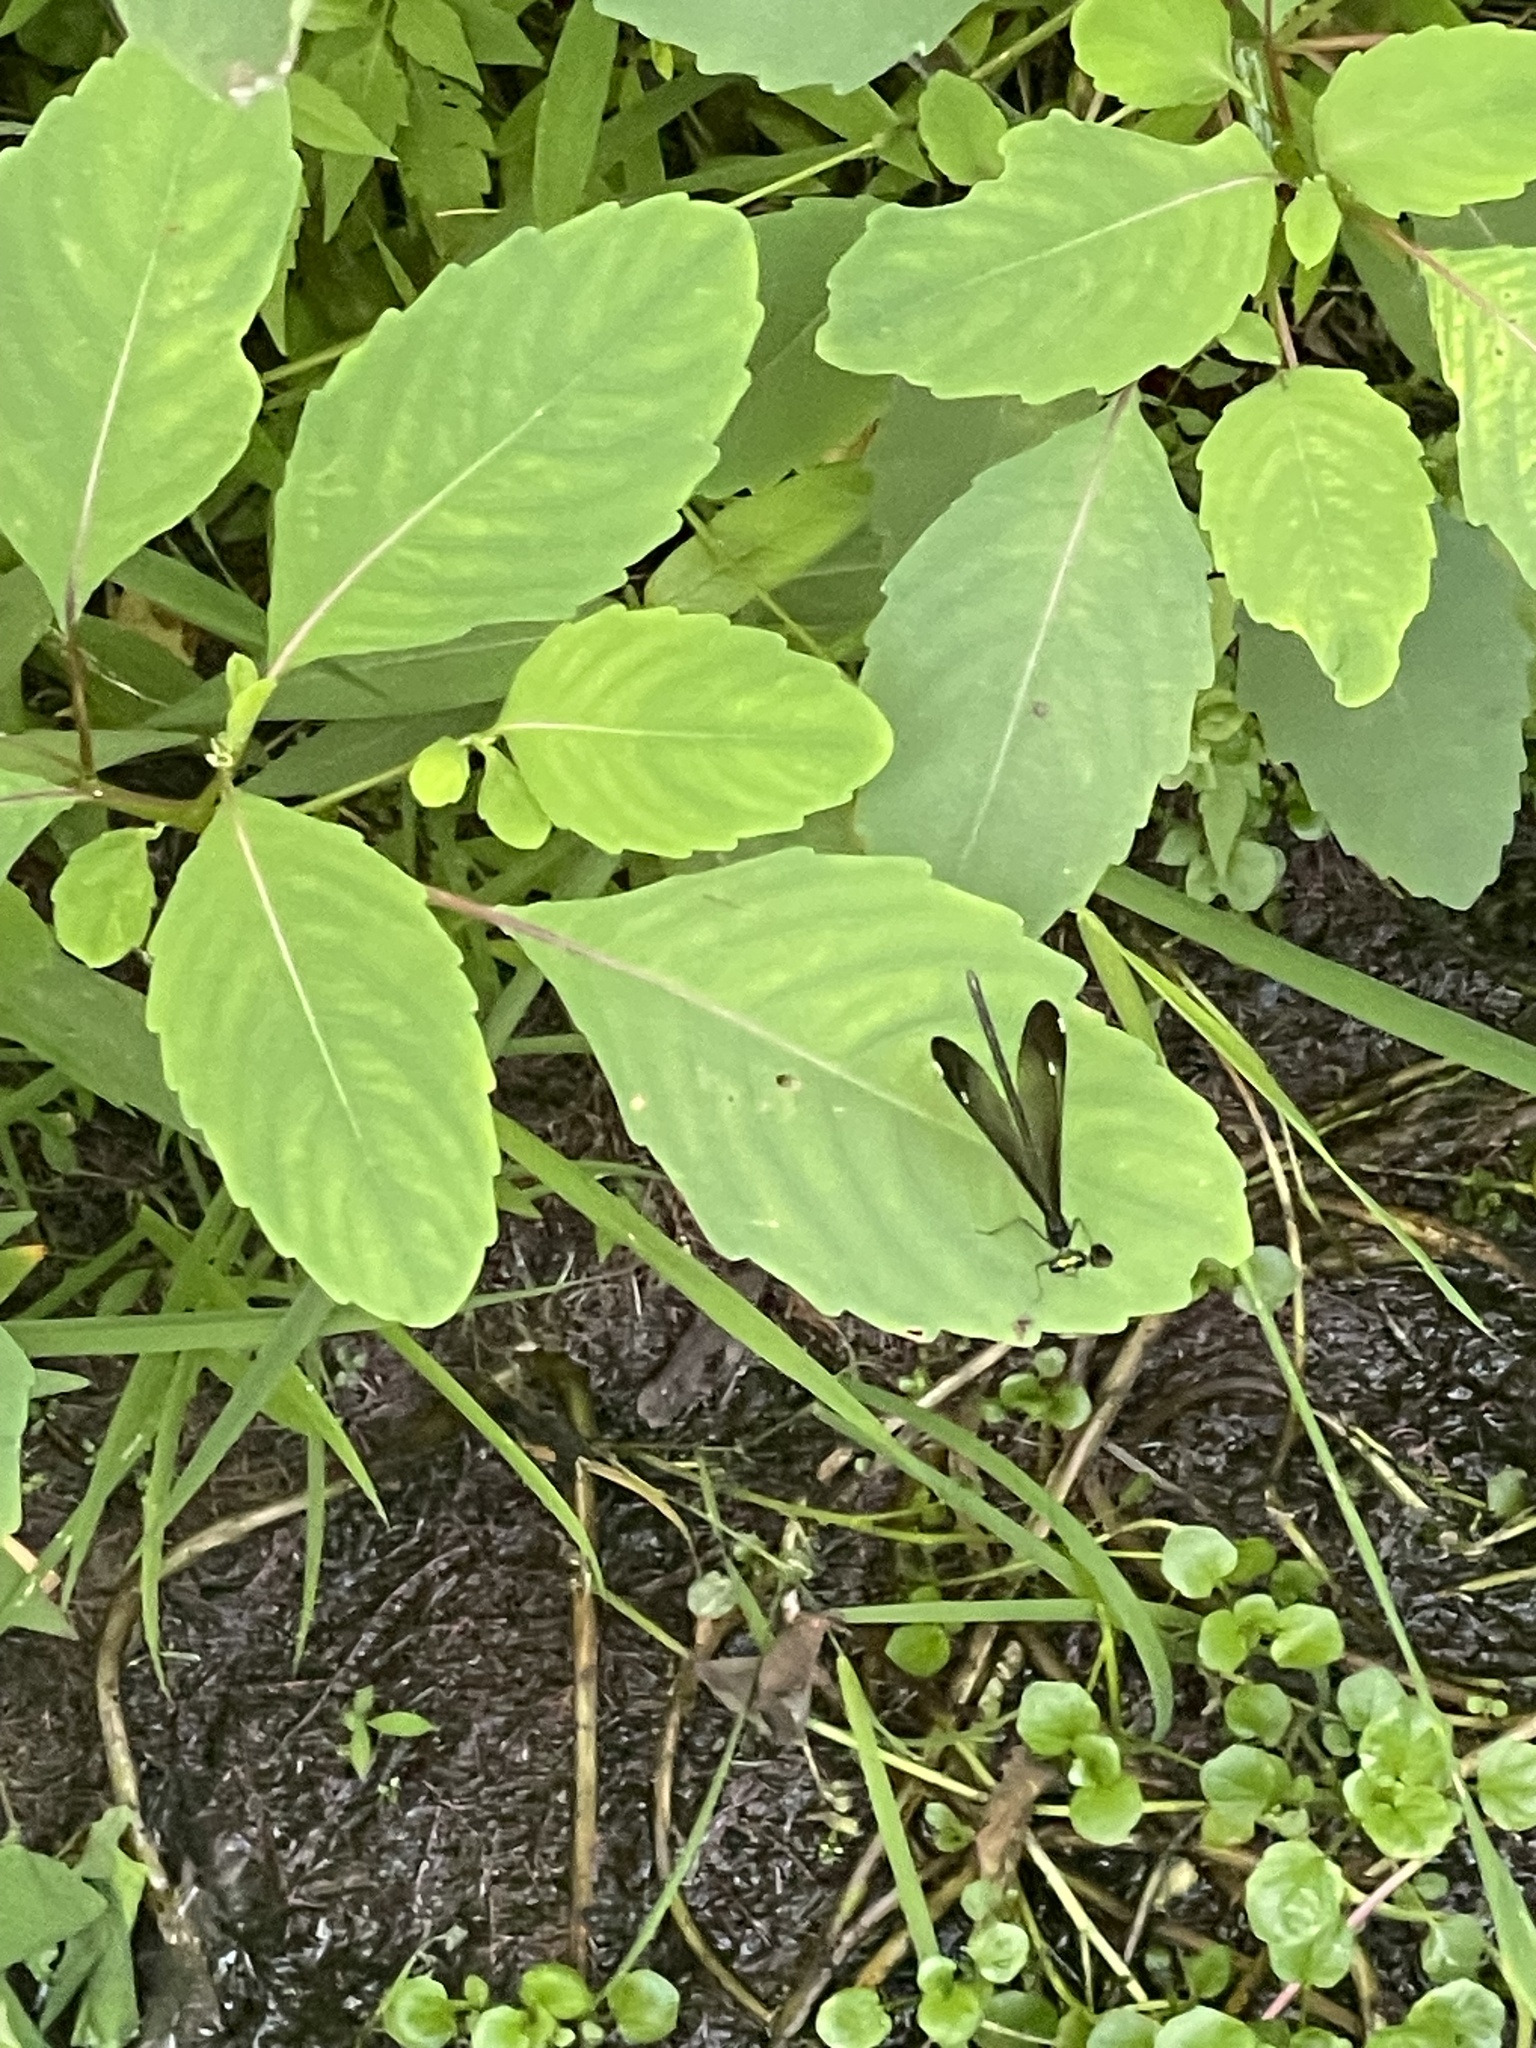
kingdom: Animalia
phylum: Arthropoda
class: Insecta
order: Odonata
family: Calopterygidae
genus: Calopteryx
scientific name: Calopteryx maculata
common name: Ebony jewelwing
